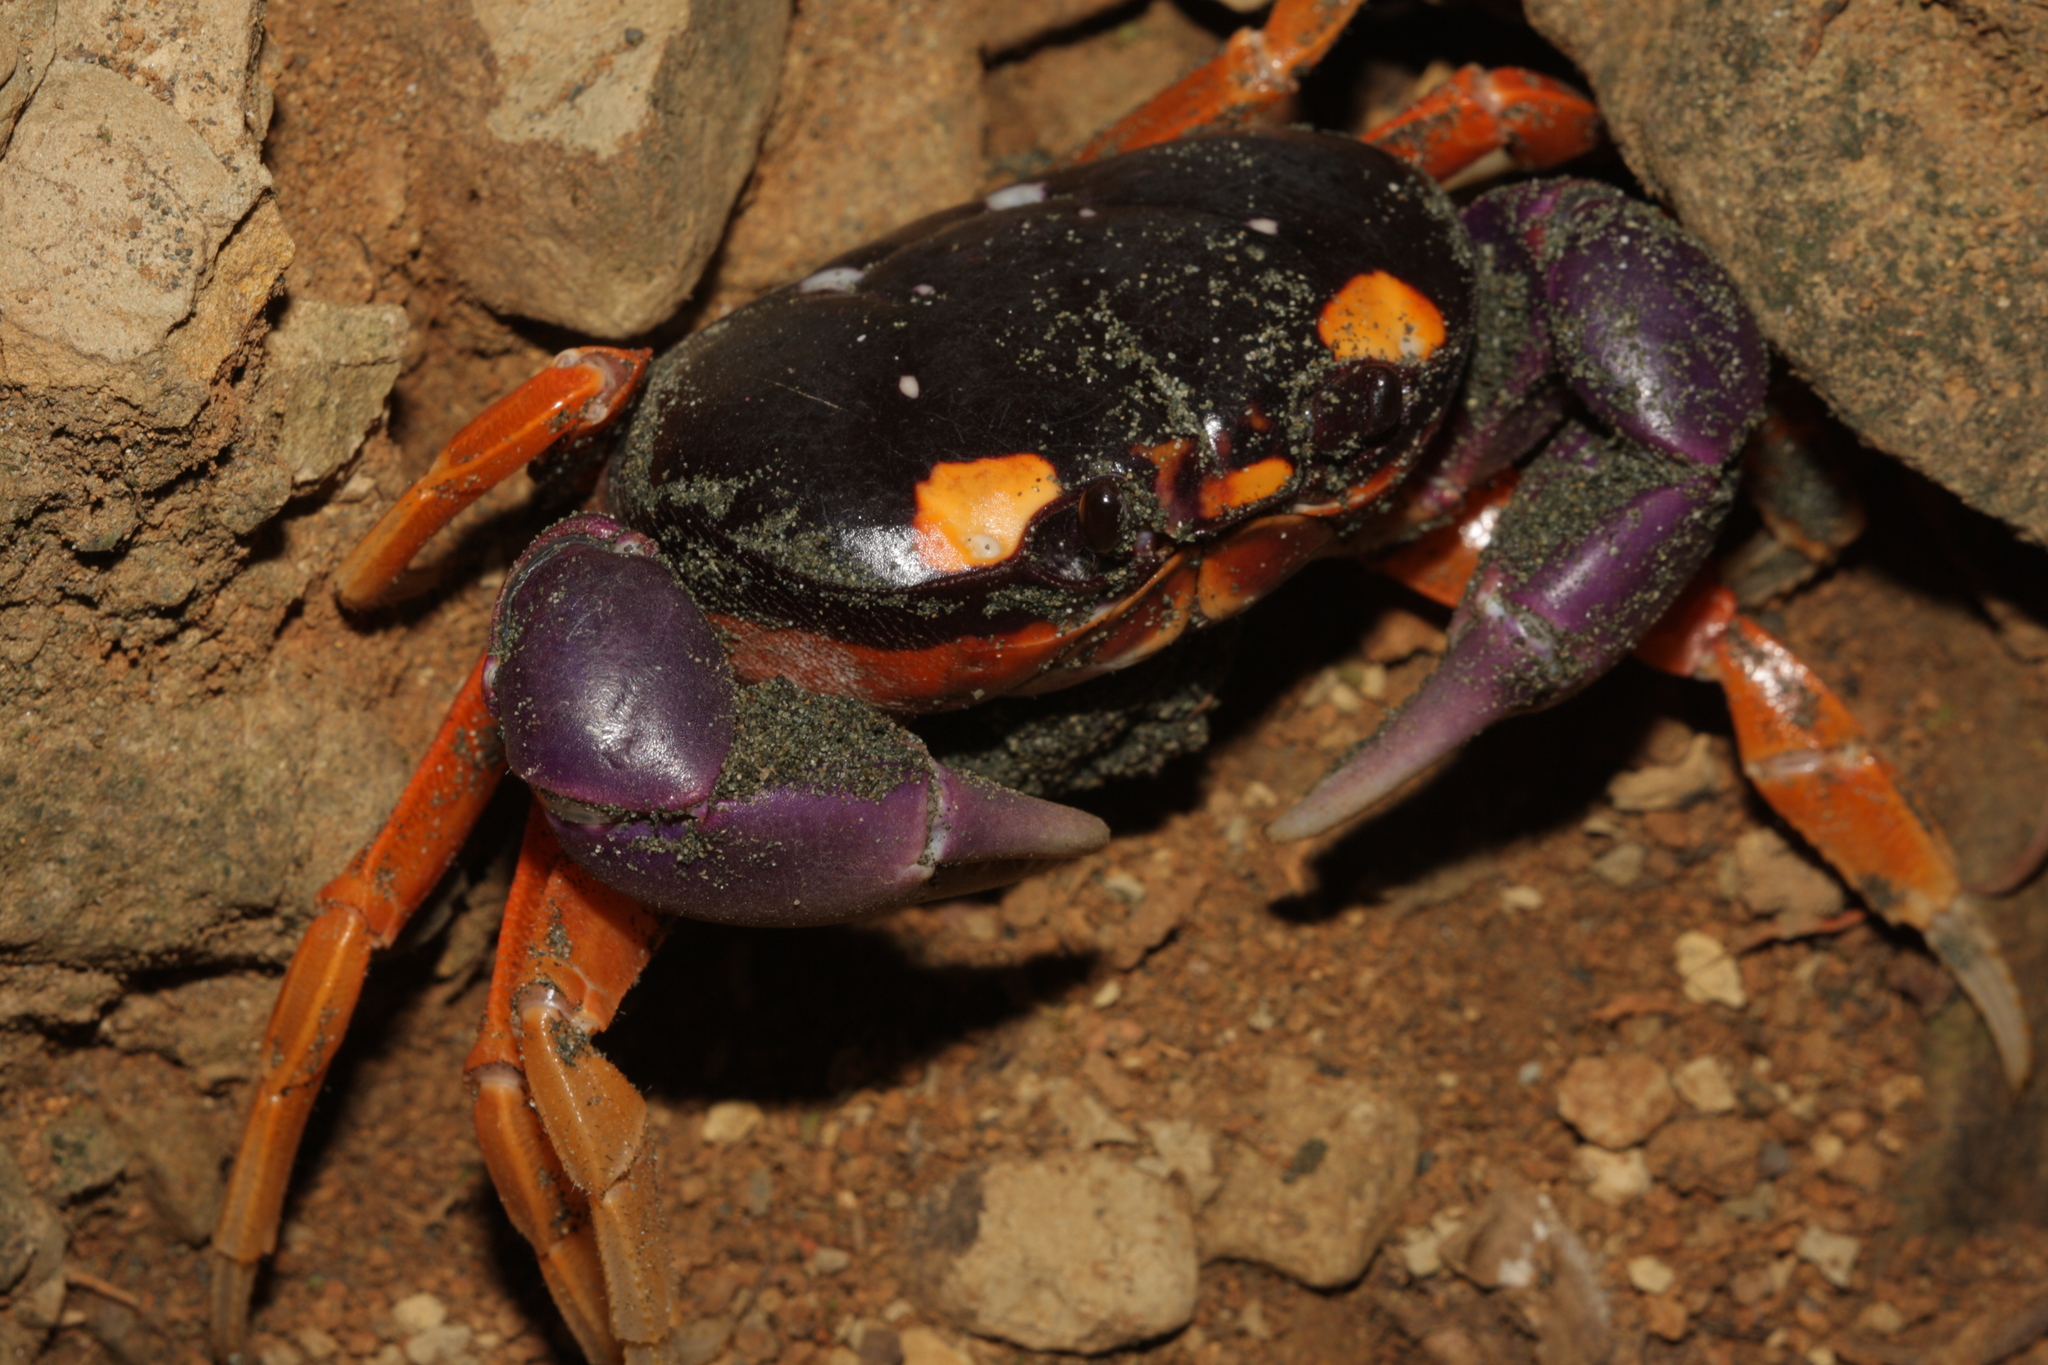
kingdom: Animalia
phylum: Arthropoda
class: Malacostraca
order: Decapoda
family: Gecarcinidae
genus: Gecarcinus
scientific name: Gecarcinus quadratus
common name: Halloween crab
